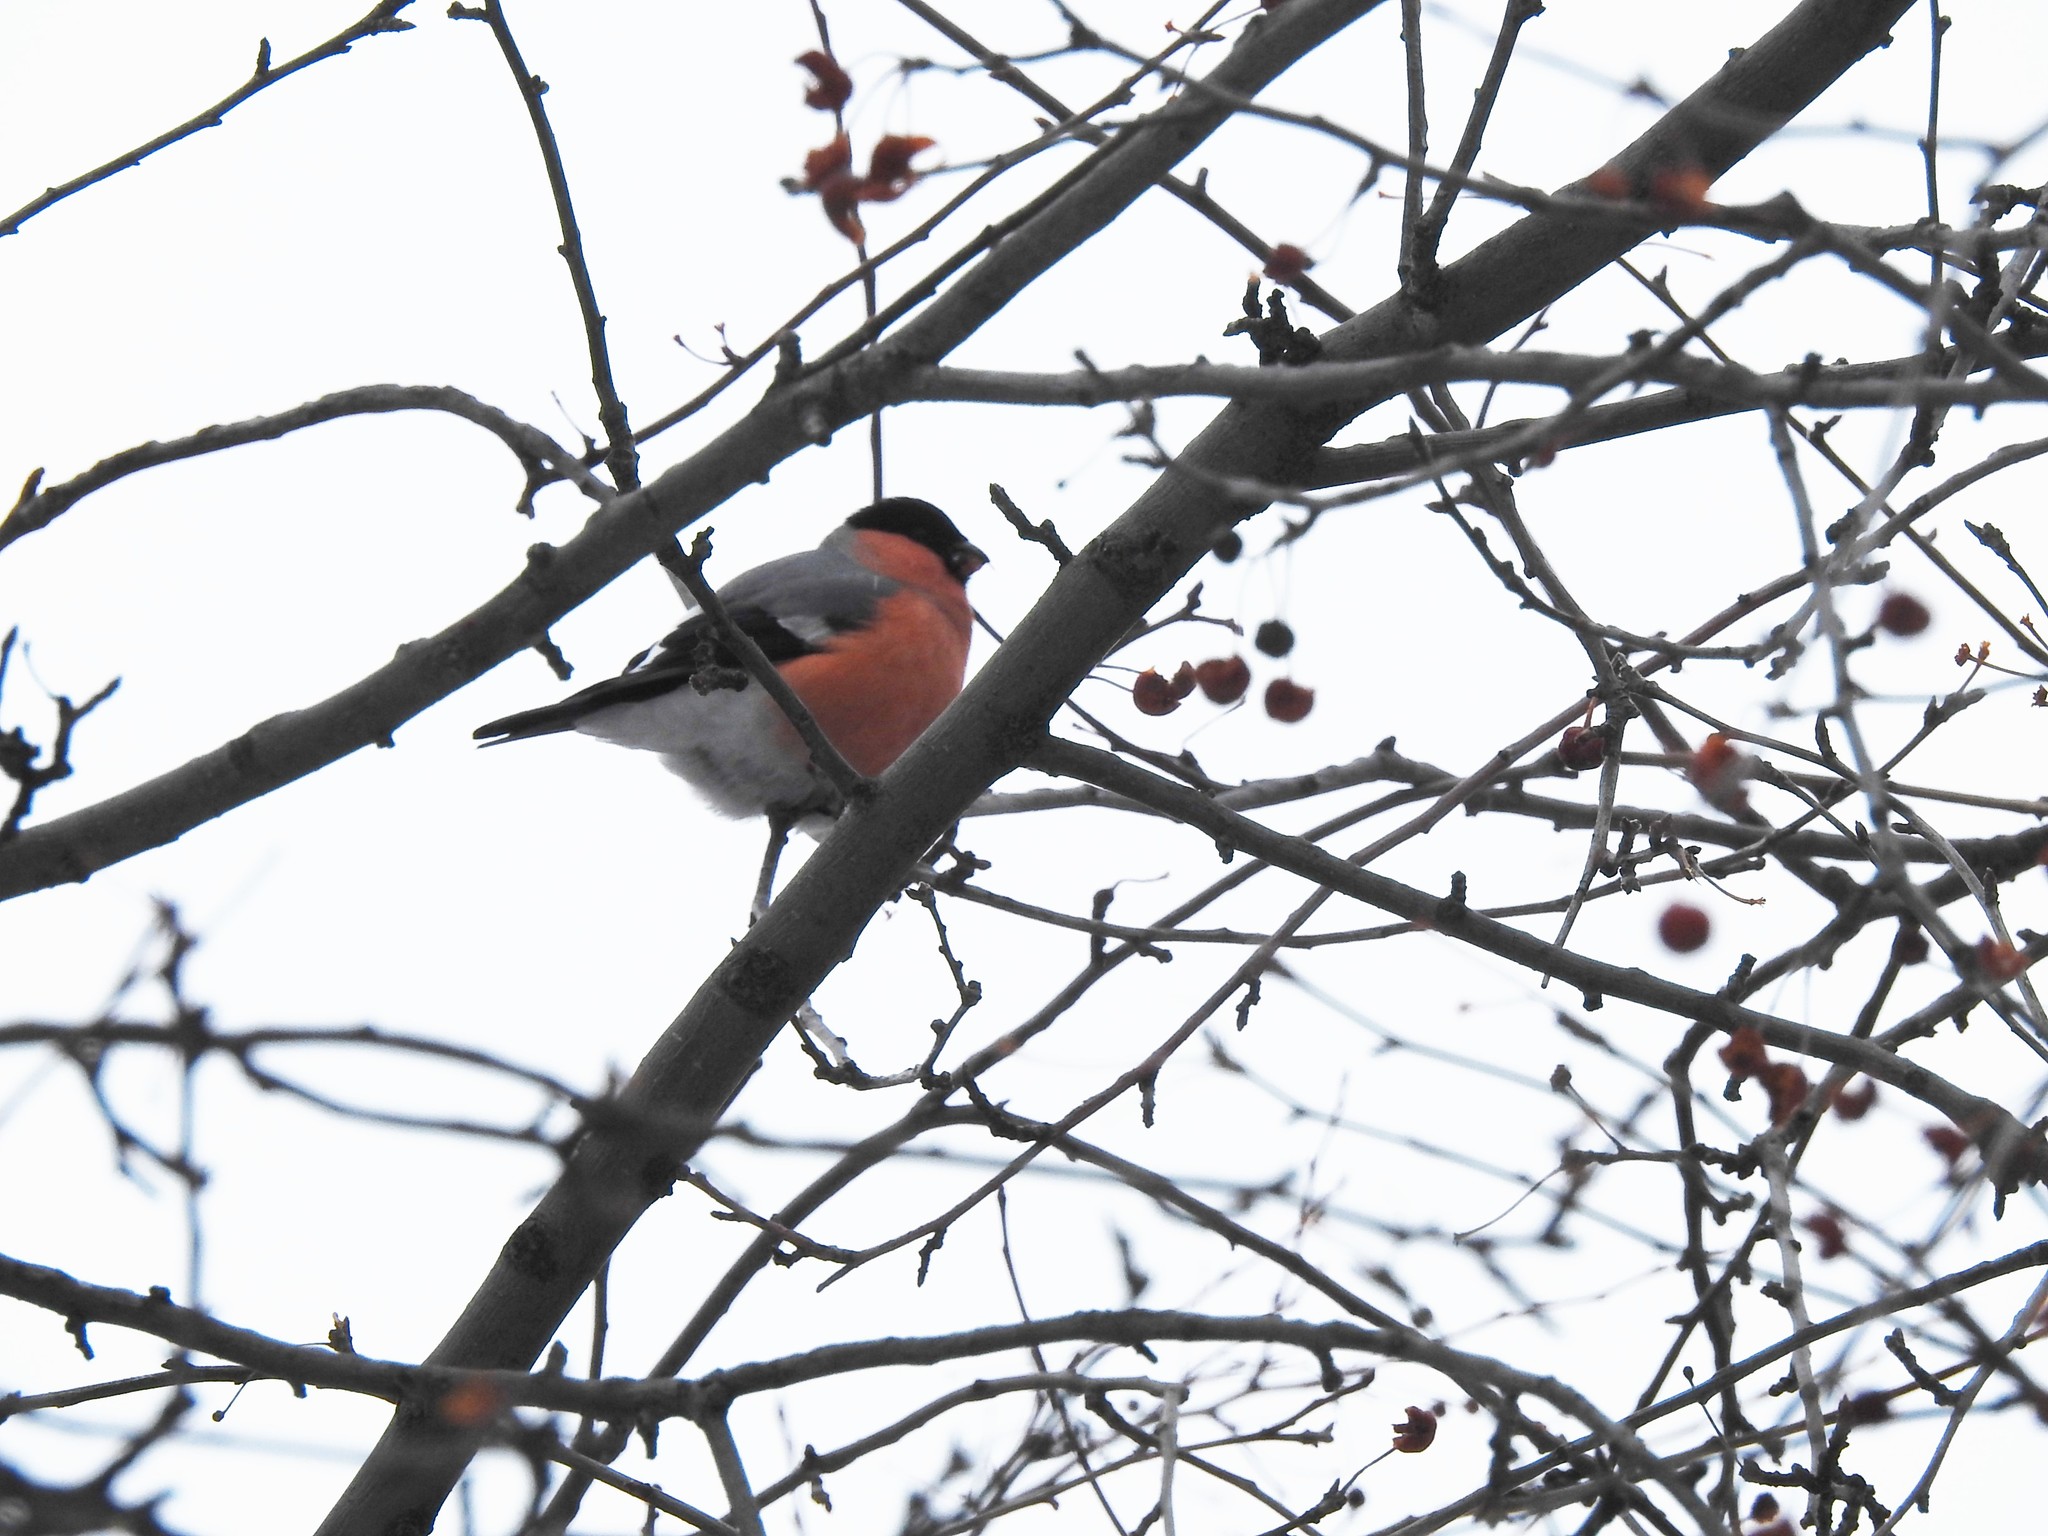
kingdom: Animalia
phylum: Chordata
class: Aves
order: Passeriformes
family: Fringillidae
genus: Pyrrhula
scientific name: Pyrrhula pyrrhula
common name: Eurasian bullfinch
